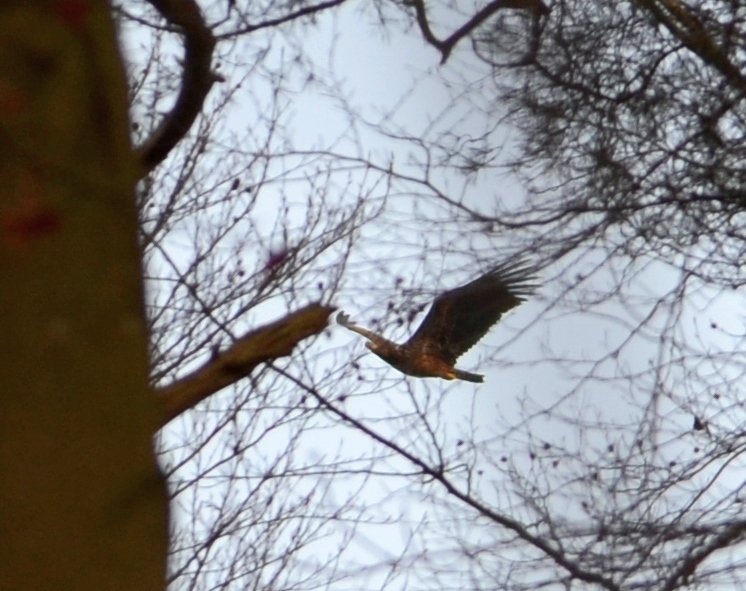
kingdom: Animalia
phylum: Chordata
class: Aves
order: Accipitriformes
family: Accipitridae
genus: Haliaeetus
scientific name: Haliaeetus albicilla
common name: White-tailed eagle
